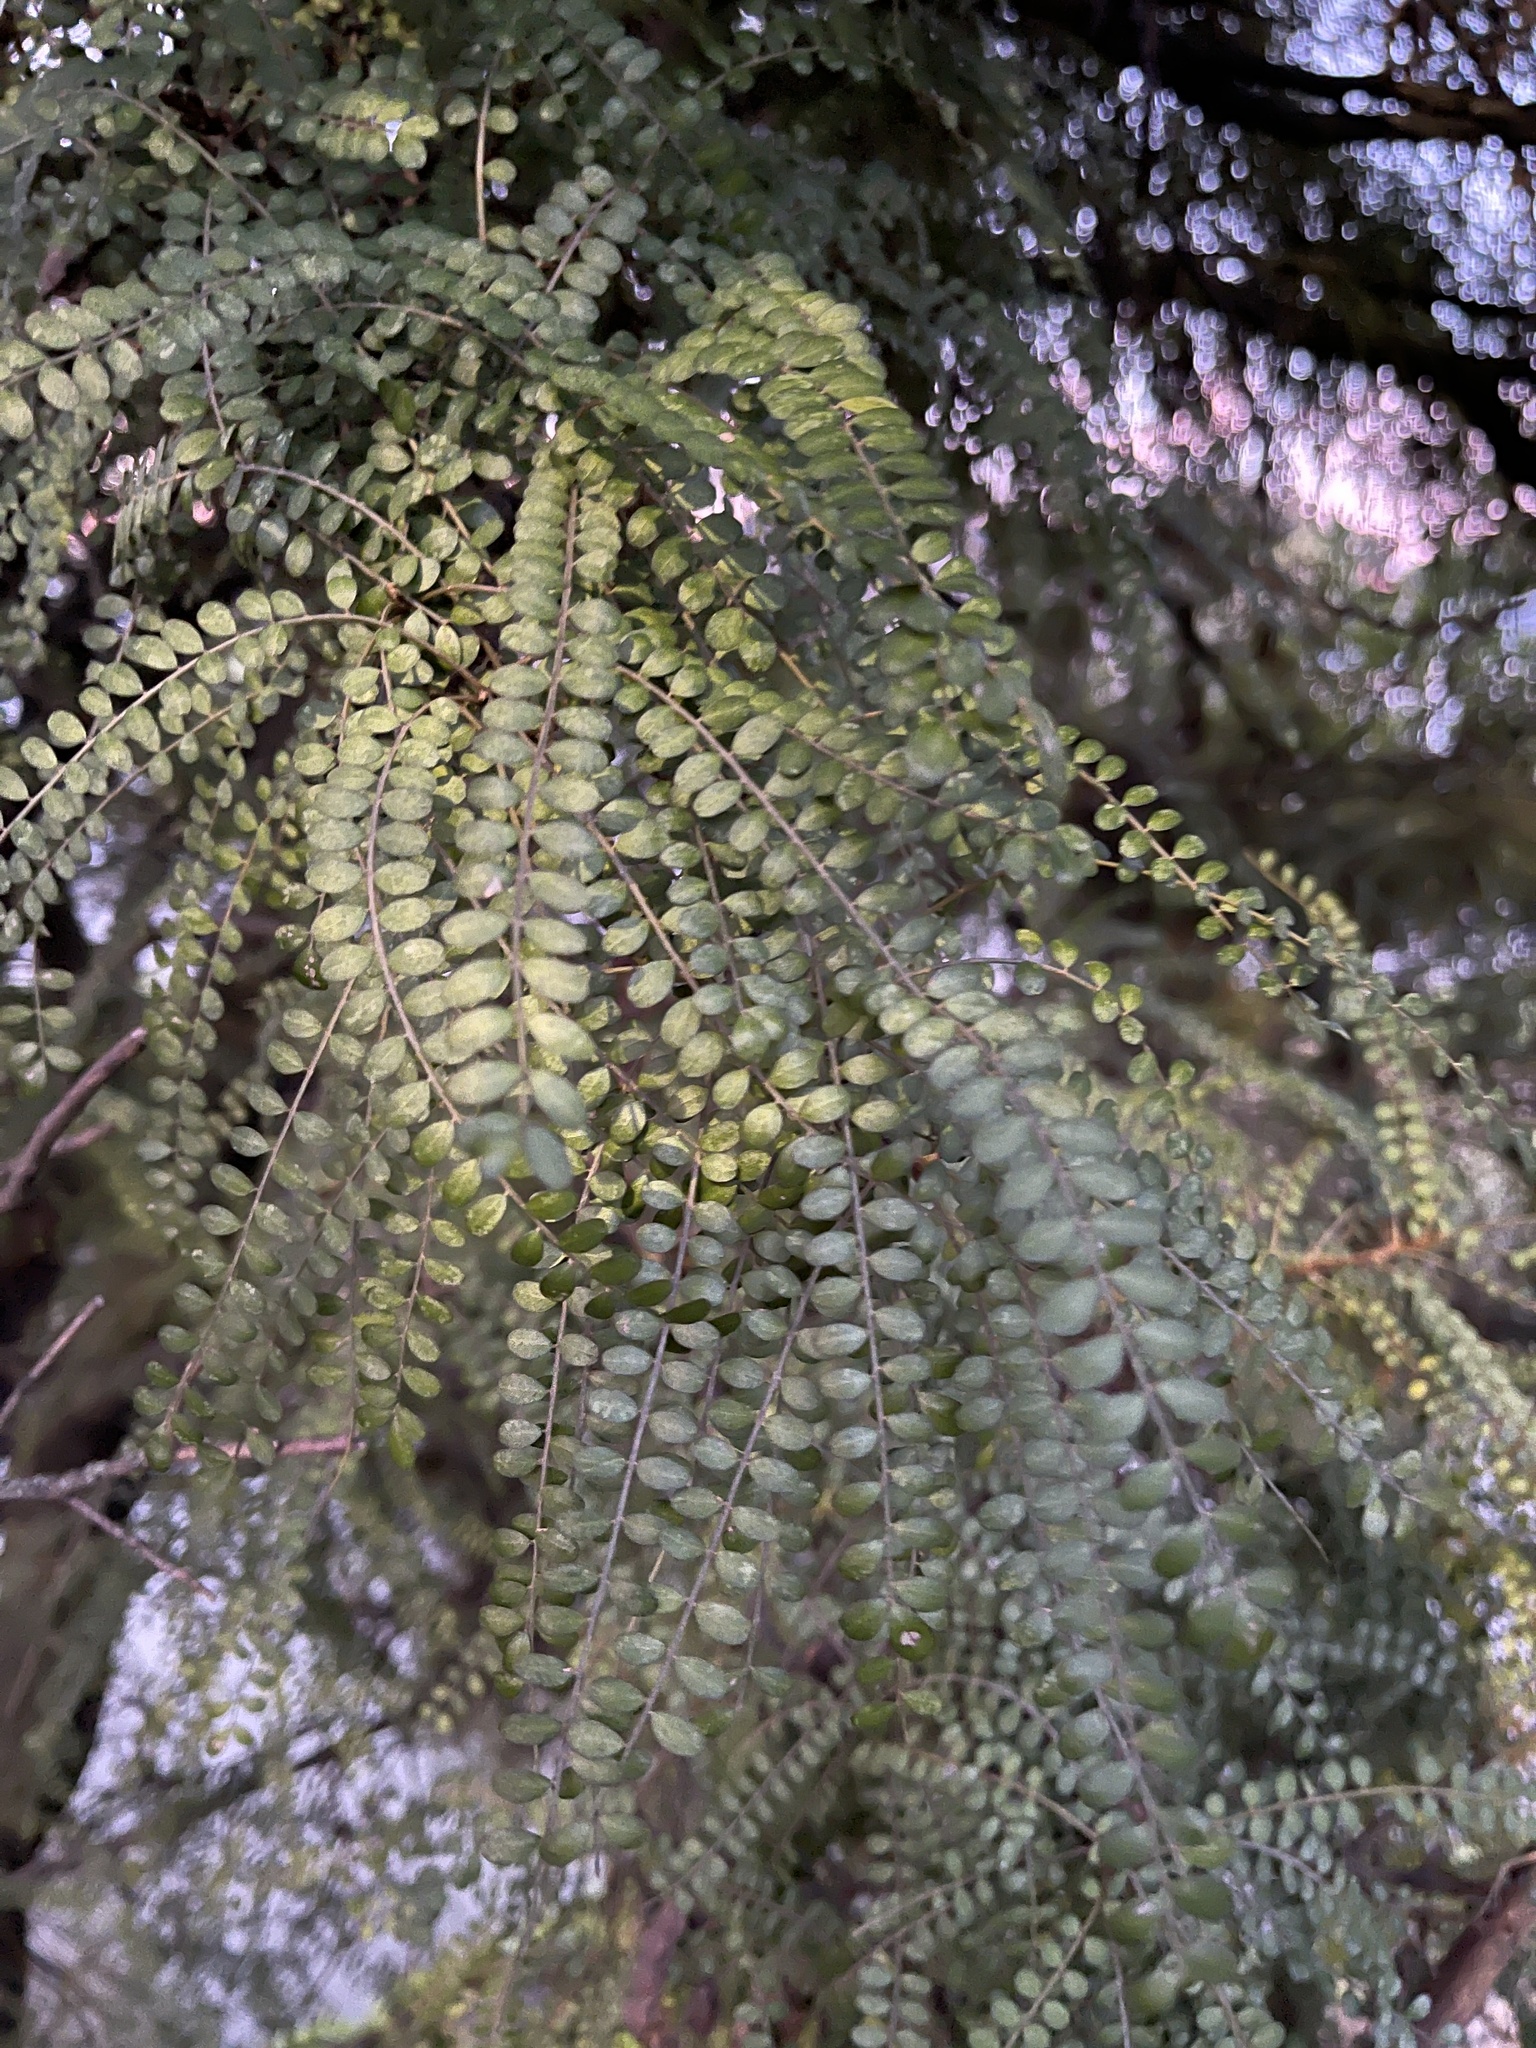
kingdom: Plantae
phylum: Tracheophyta
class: Magnoliopsida
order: Fabales
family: Fabaceae
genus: Sophora
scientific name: Sophora microphylla
